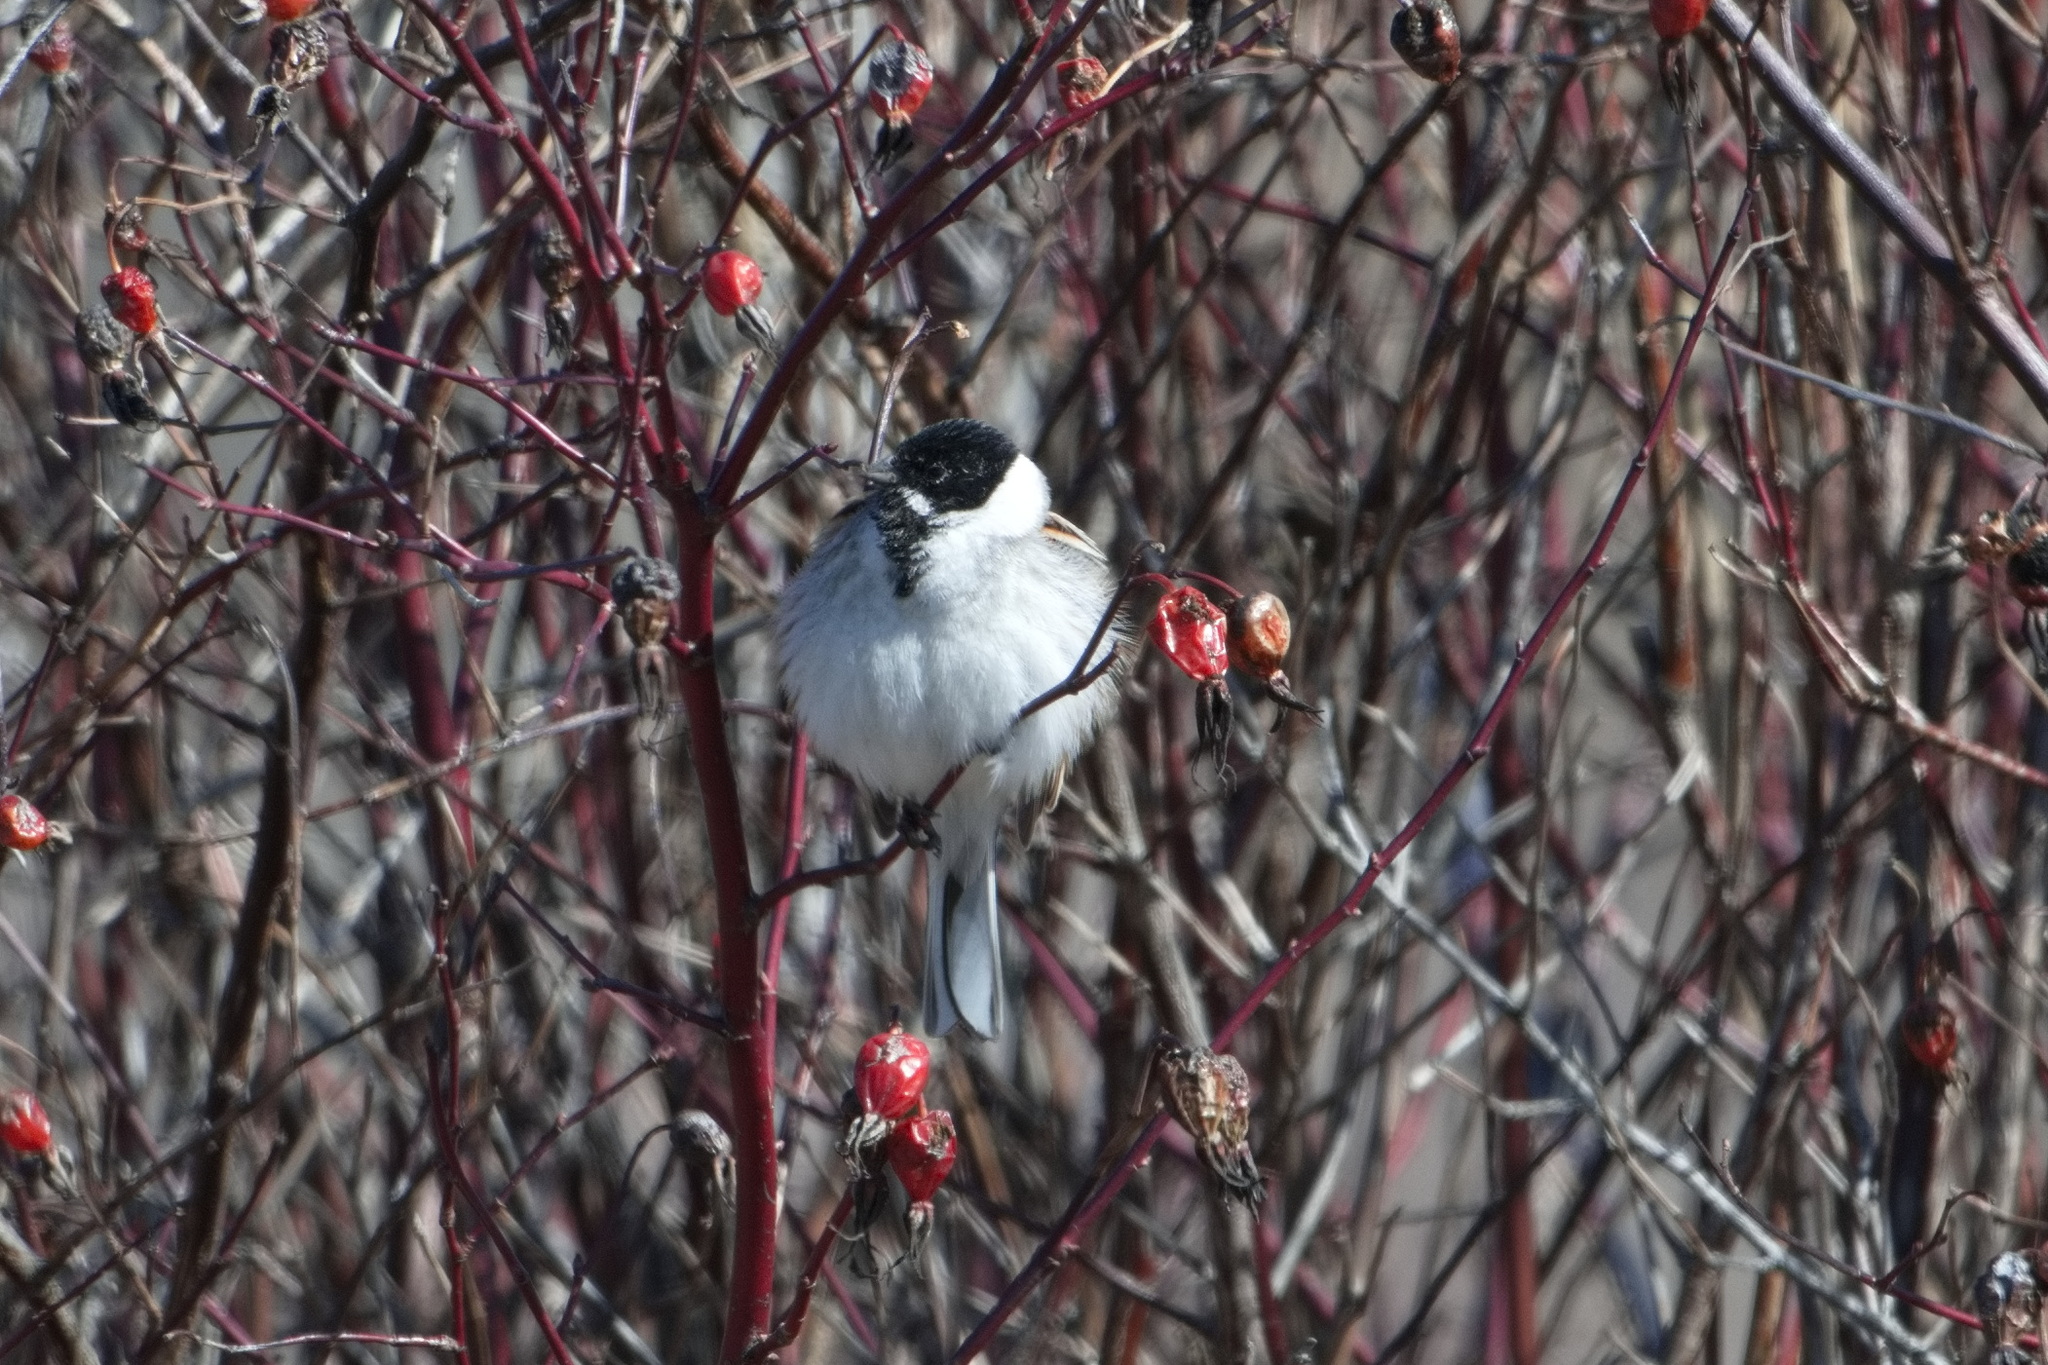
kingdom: Animalia
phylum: Chordata
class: Aves
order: Passeriformes
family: Emberizidae
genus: Emberiza
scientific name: Emberiza schoeniclus
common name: Reed bunting
